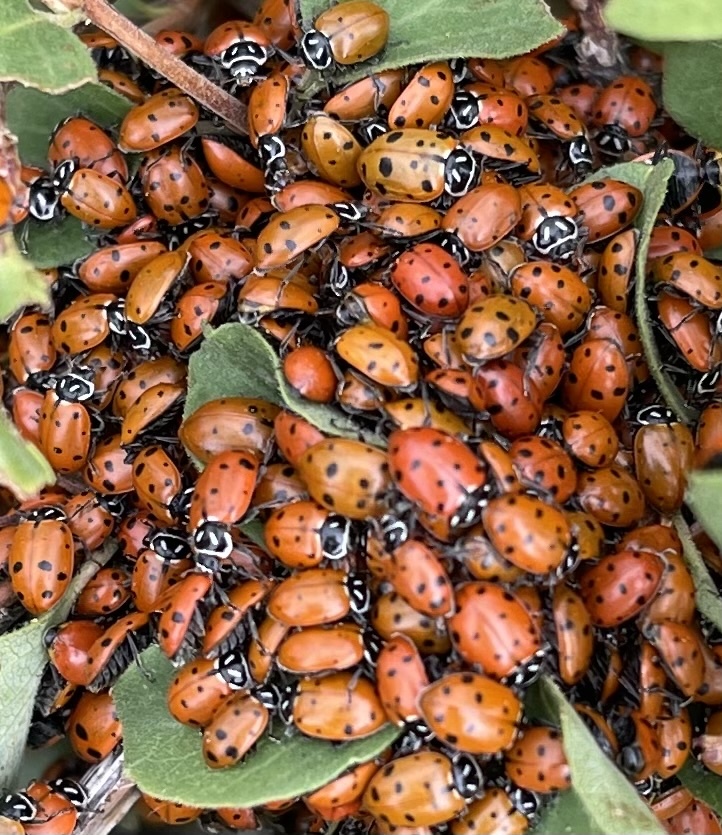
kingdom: Animalia
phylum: Arthropoda
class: Insecta
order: Coleoptera
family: Coccinellidae
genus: Hippodamia
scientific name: Hippodamia convergens
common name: Convergent lady beetle
